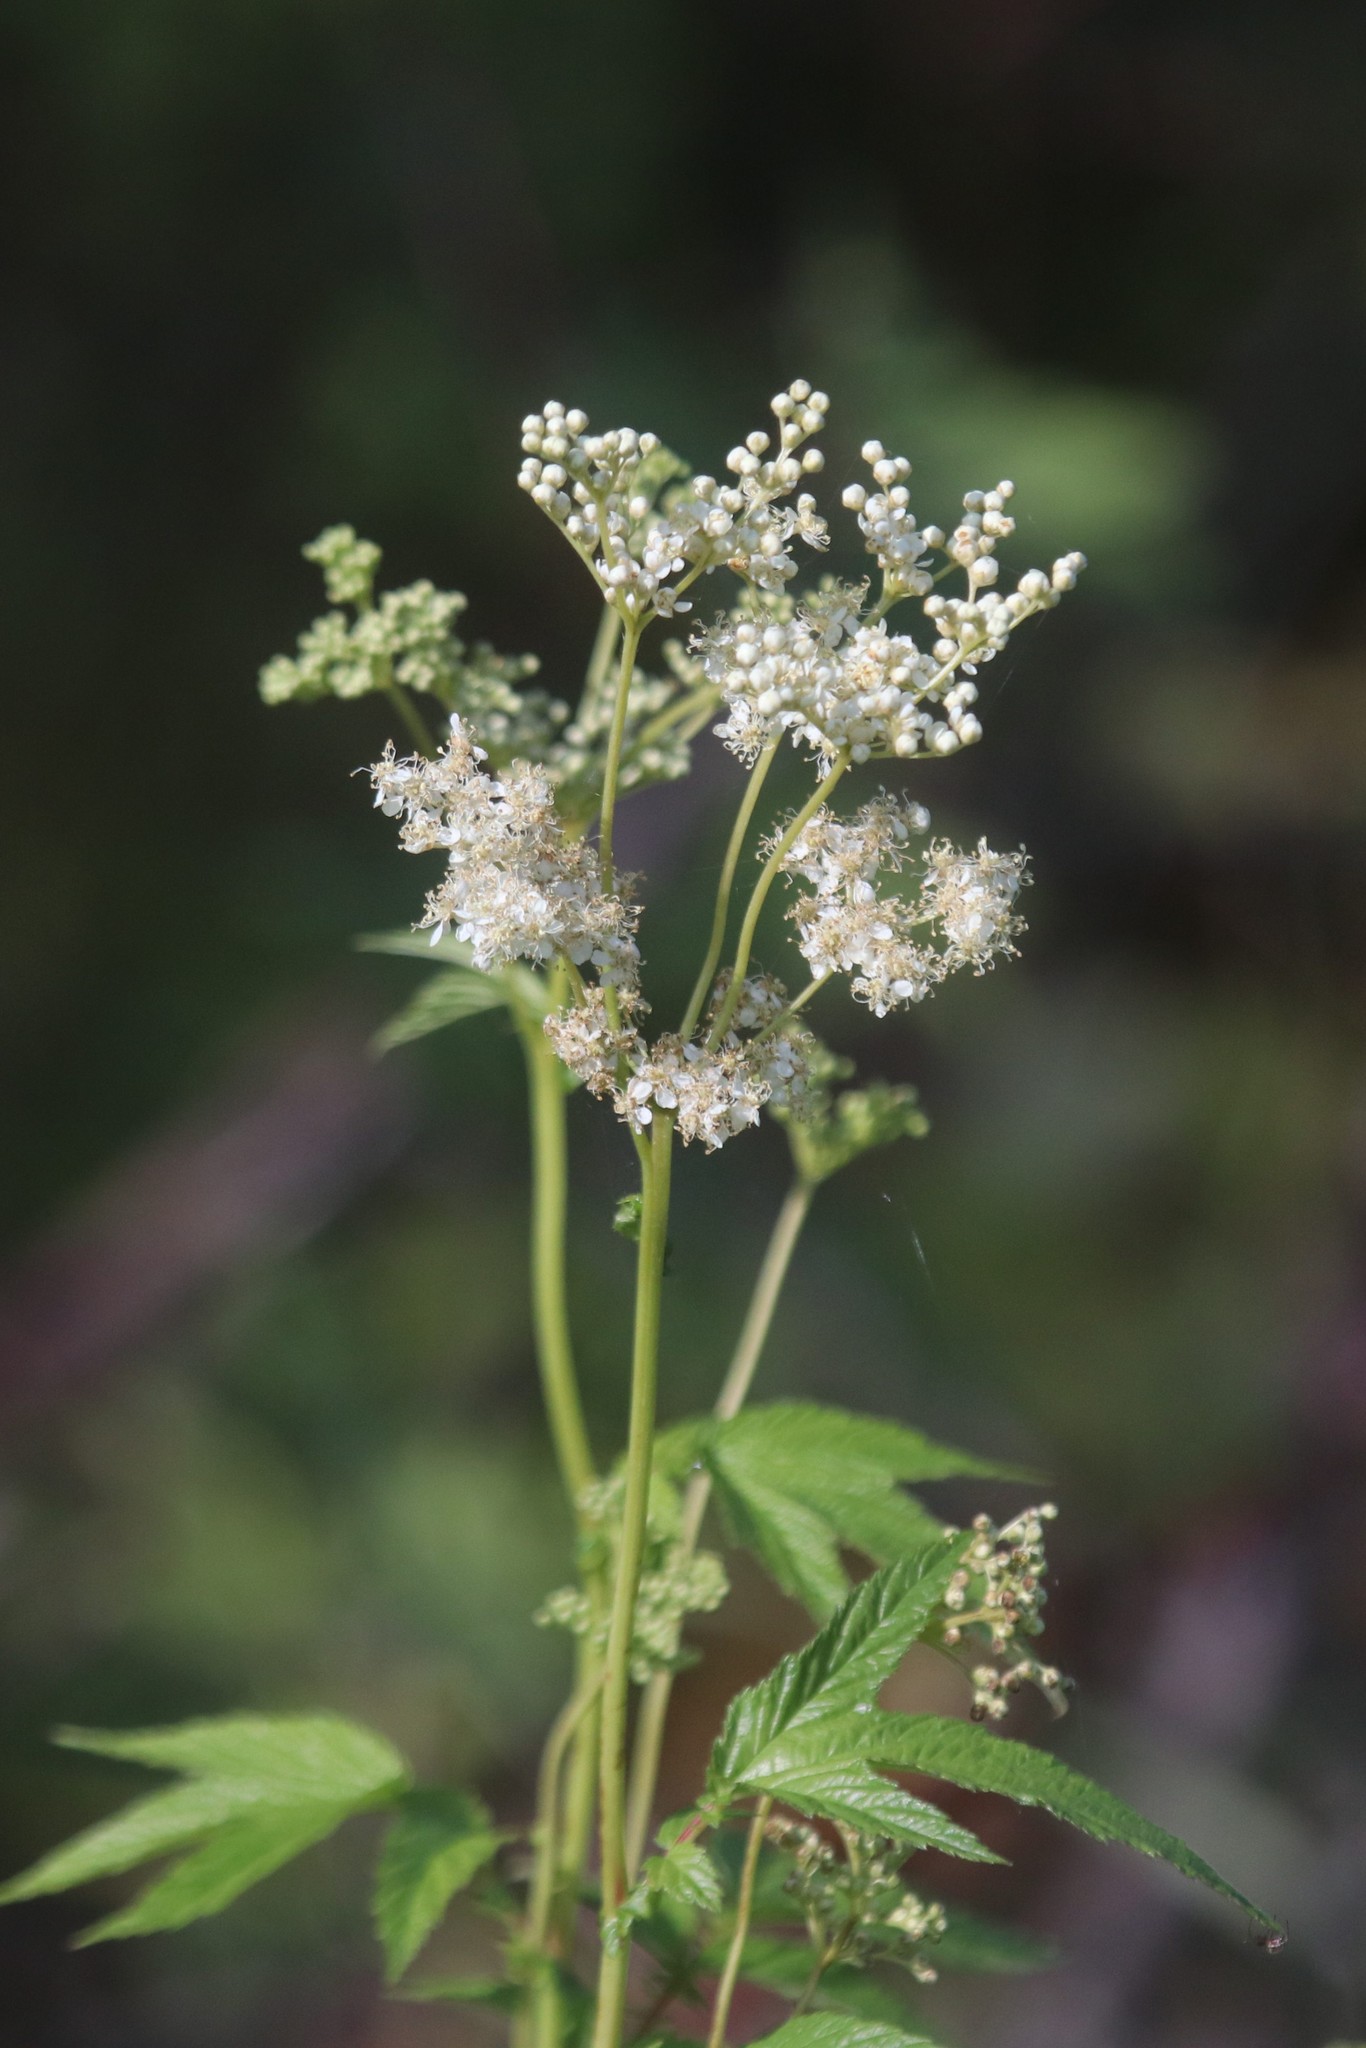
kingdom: Plantae
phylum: Tracheophyta
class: Magnoliopsida
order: Rosales
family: Rosaceae
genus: Filipendula
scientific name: Filipendula ulmaria
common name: Meadowsweet
